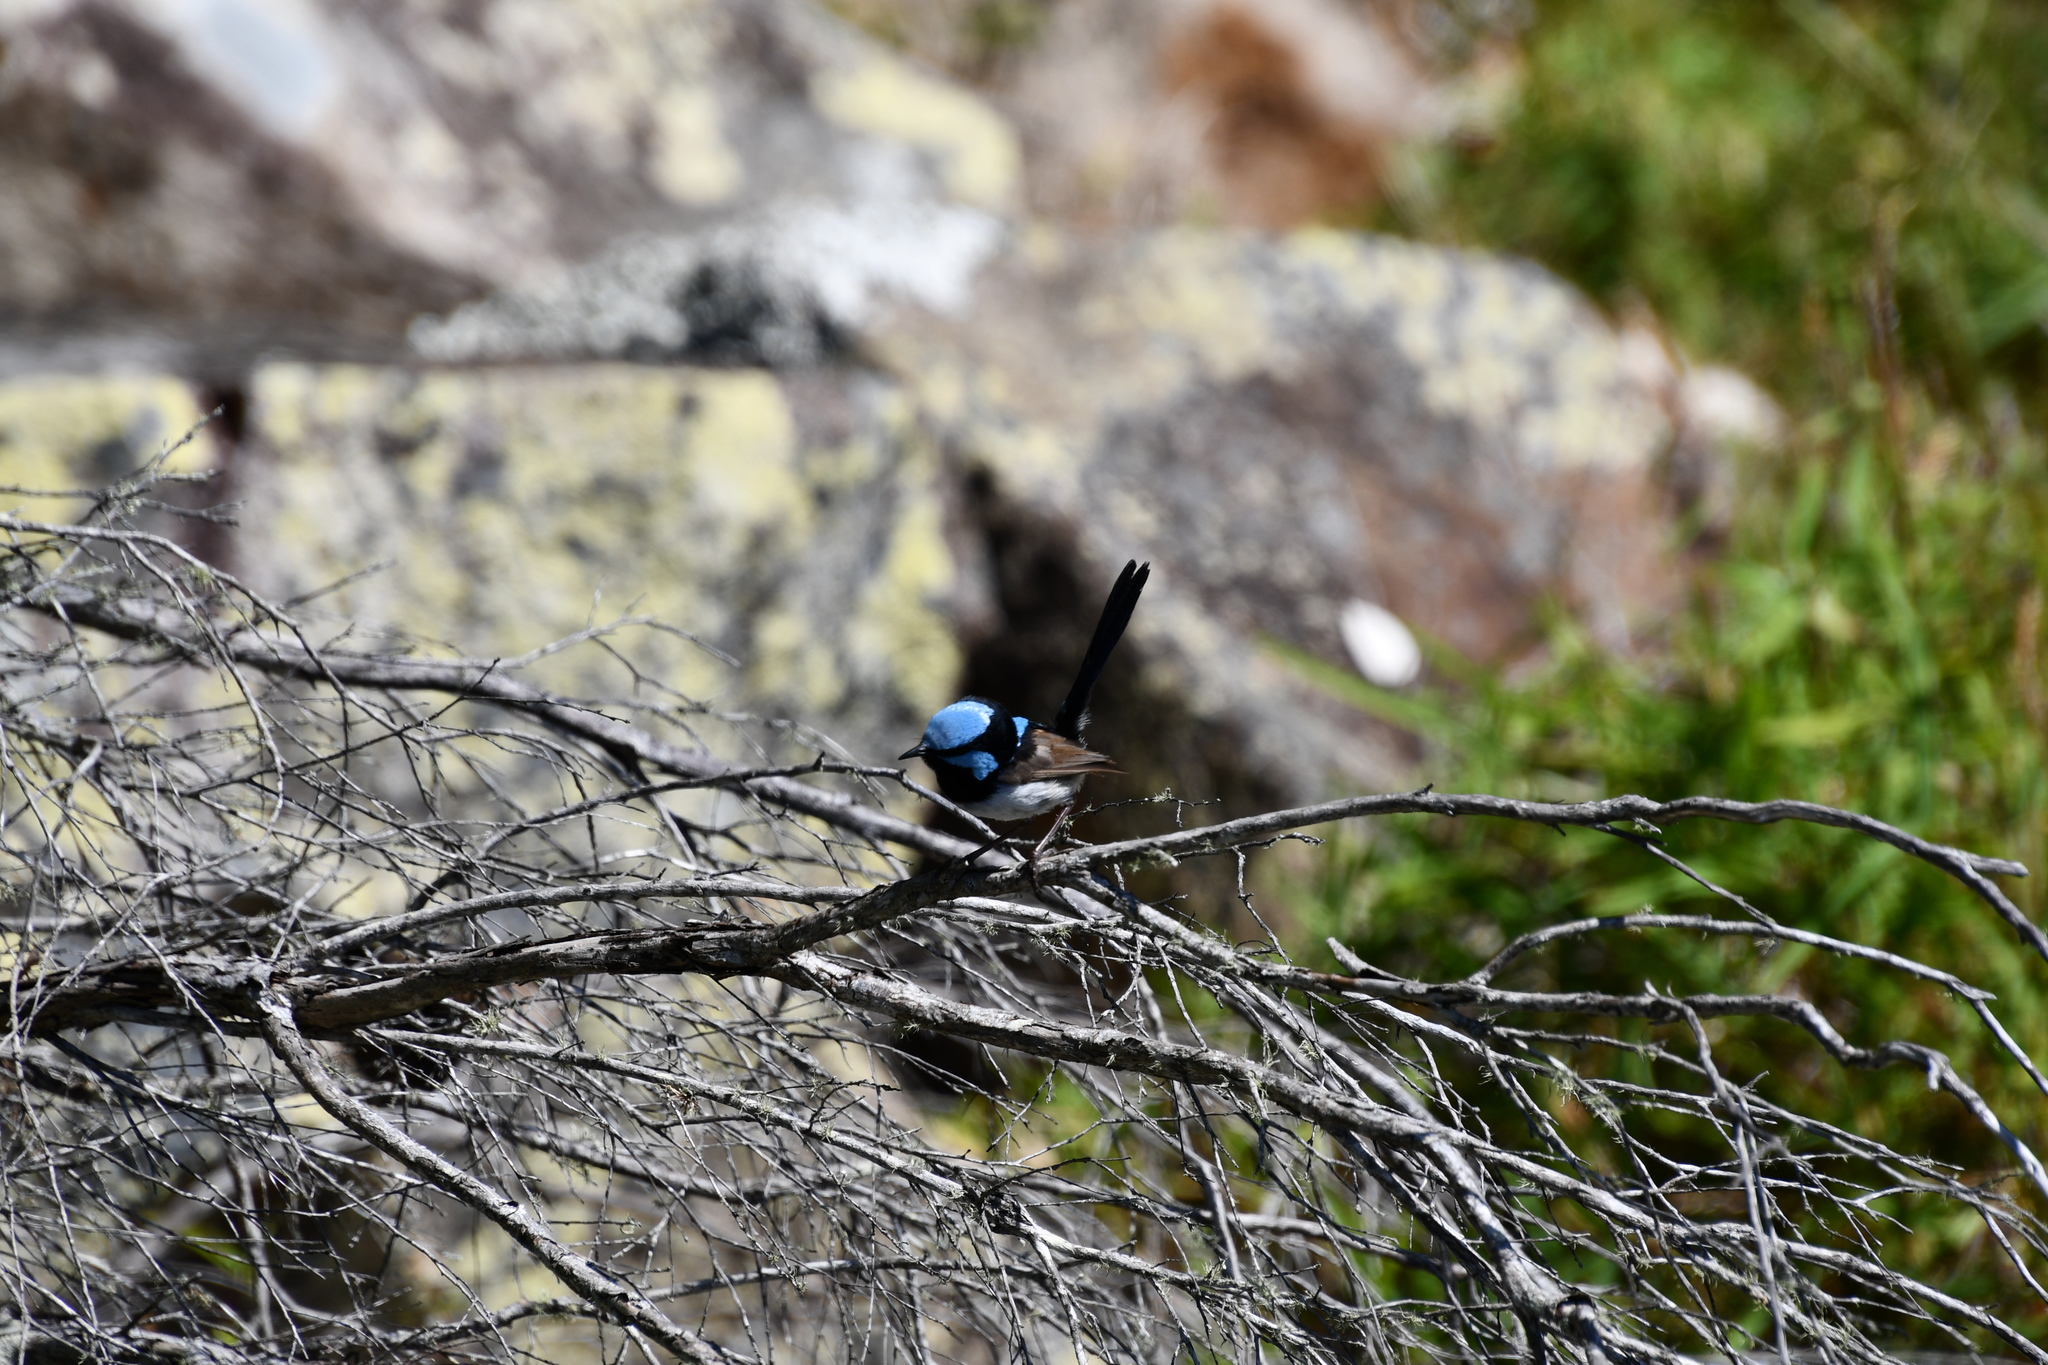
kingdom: Animalia
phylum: Chordata
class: Aves
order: Passeriformes
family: Maluridae
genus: Malurus
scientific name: Malurus cyaneus
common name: Superb fairywren
